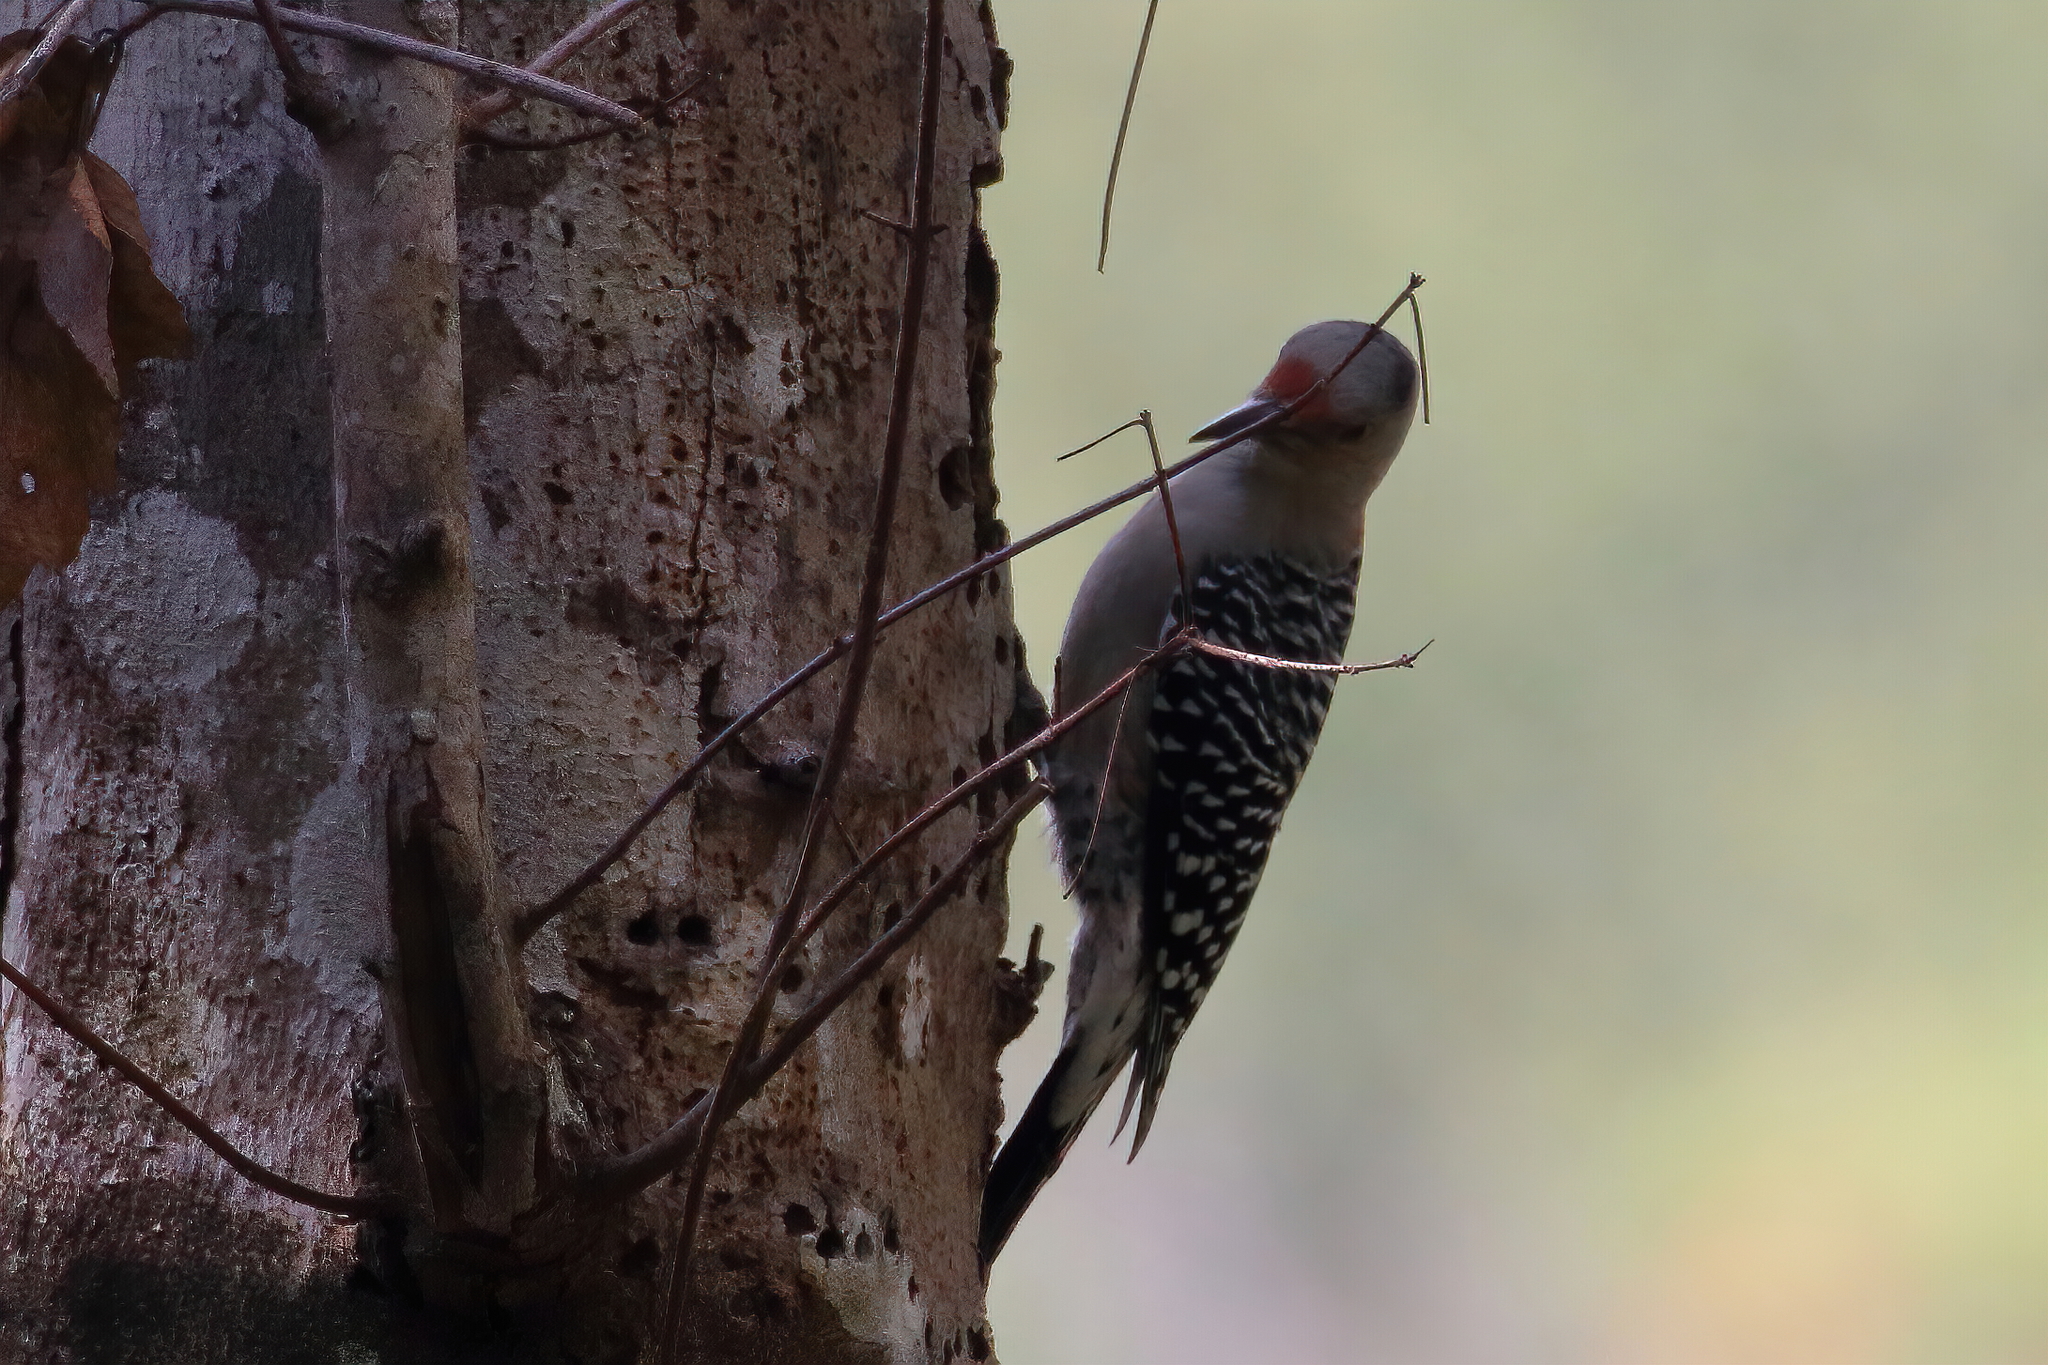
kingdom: Animalia
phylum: Chordata
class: Aves
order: Piciformes
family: Picidae
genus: Melanerpes
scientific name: Melanerpes carolinus
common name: Red-bellied woodpecker
